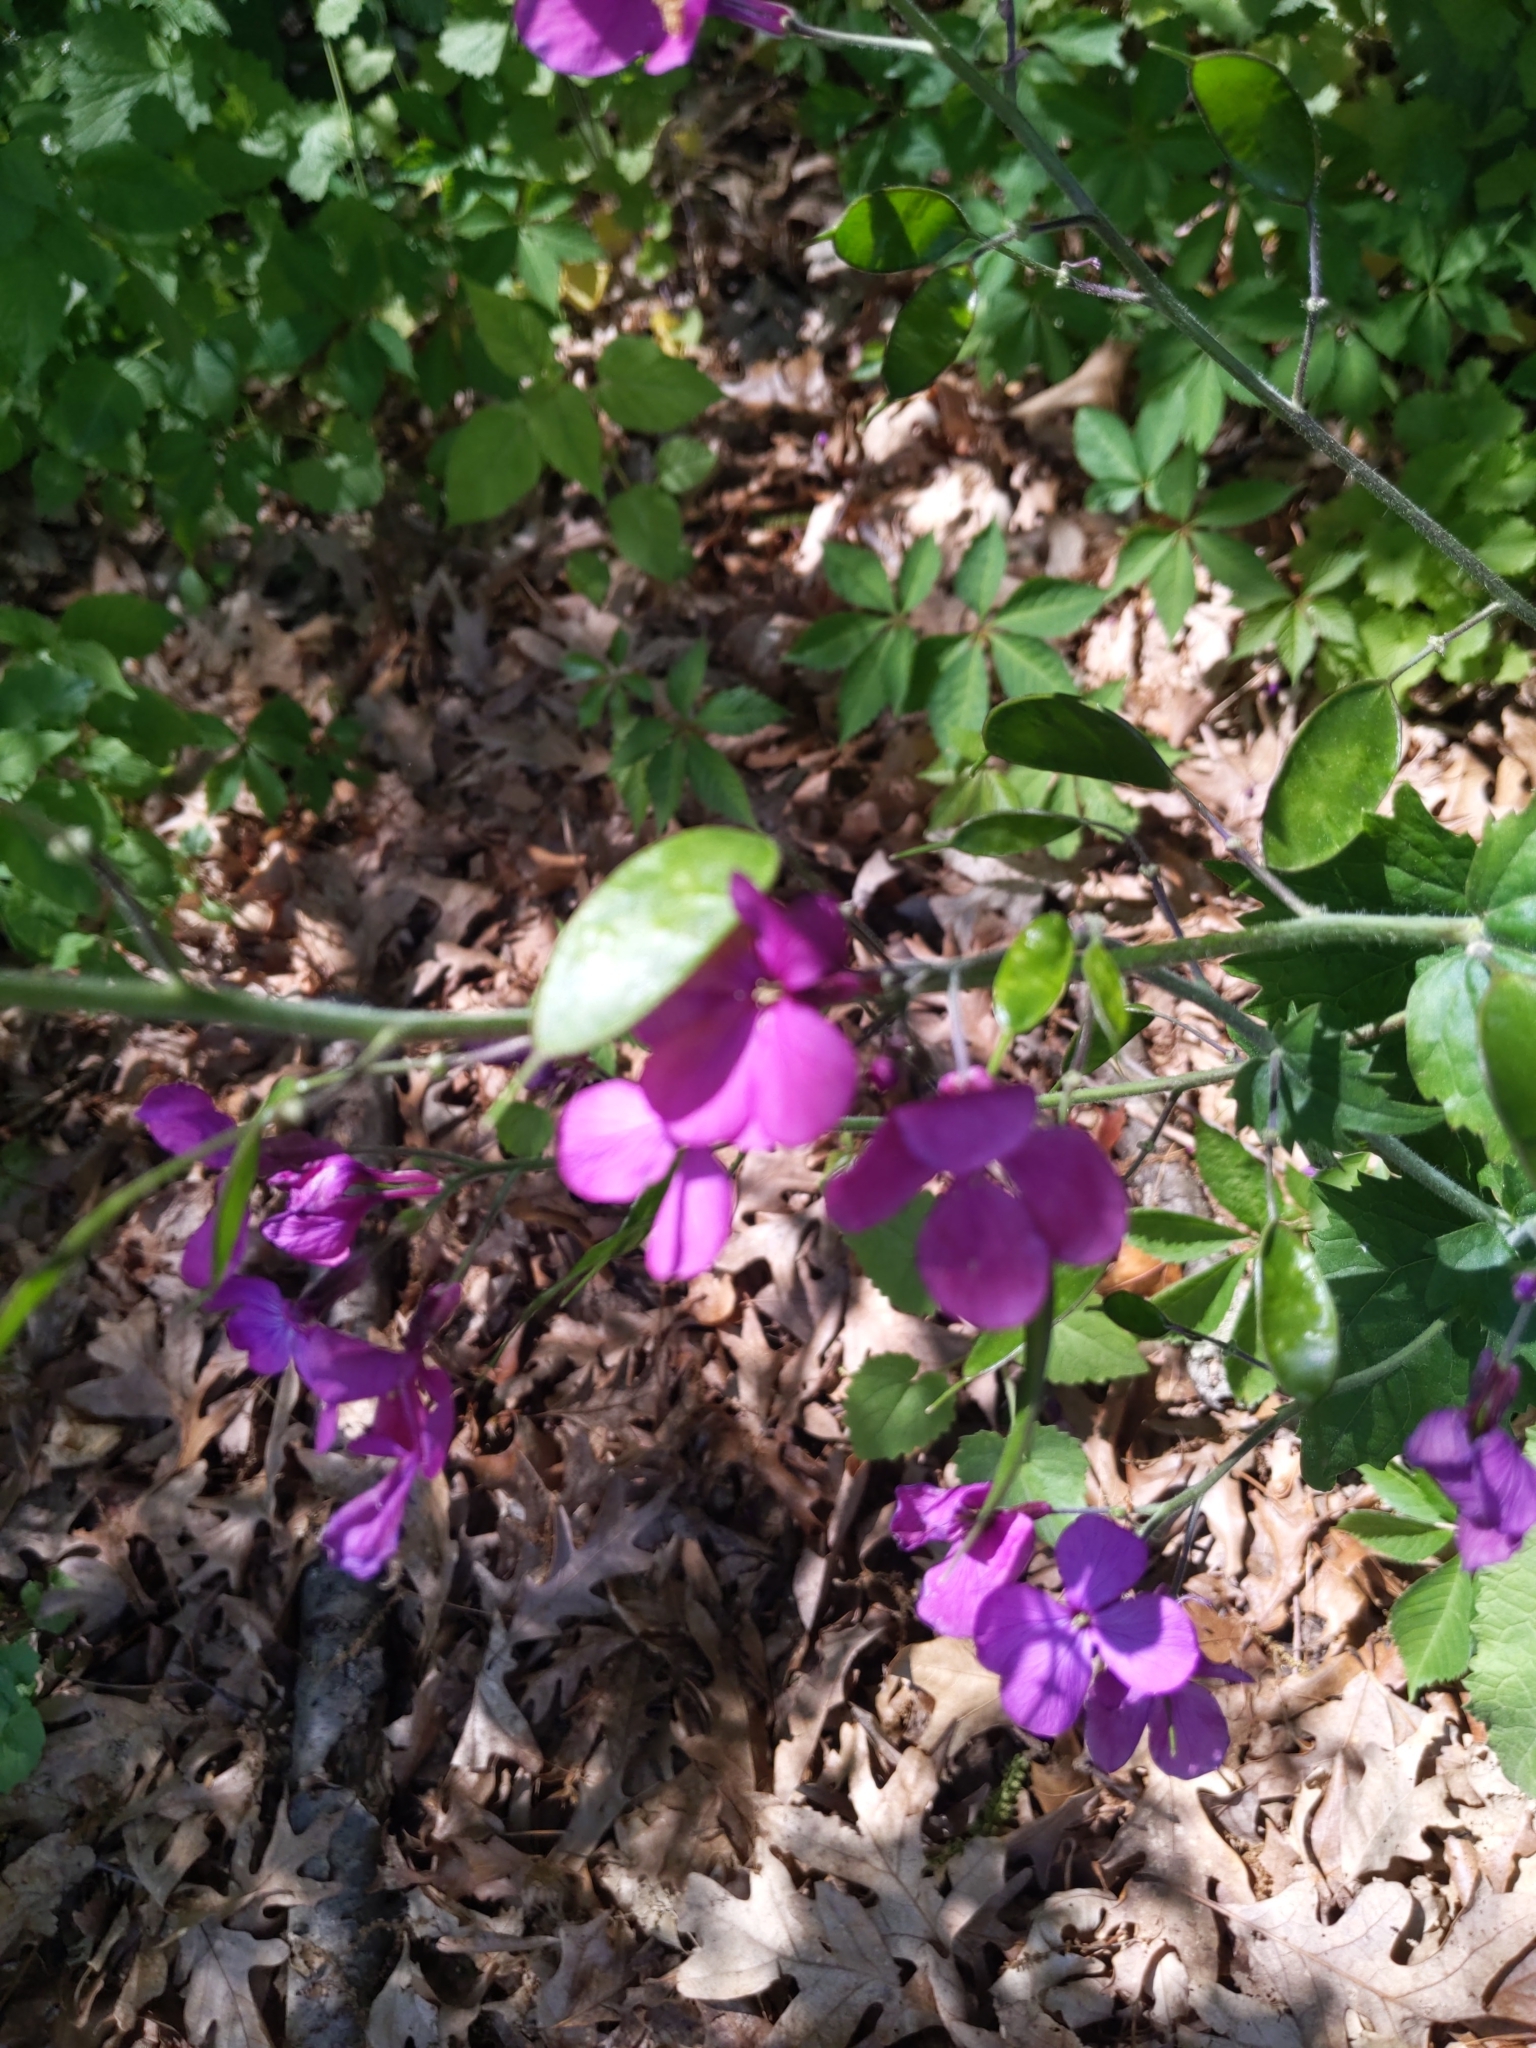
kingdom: Plantae
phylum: Tracheophyta
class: Magnoliopsida
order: Brassicales
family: Brassicaceae
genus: Lunaria
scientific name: Lunaria annua
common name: Honesty
